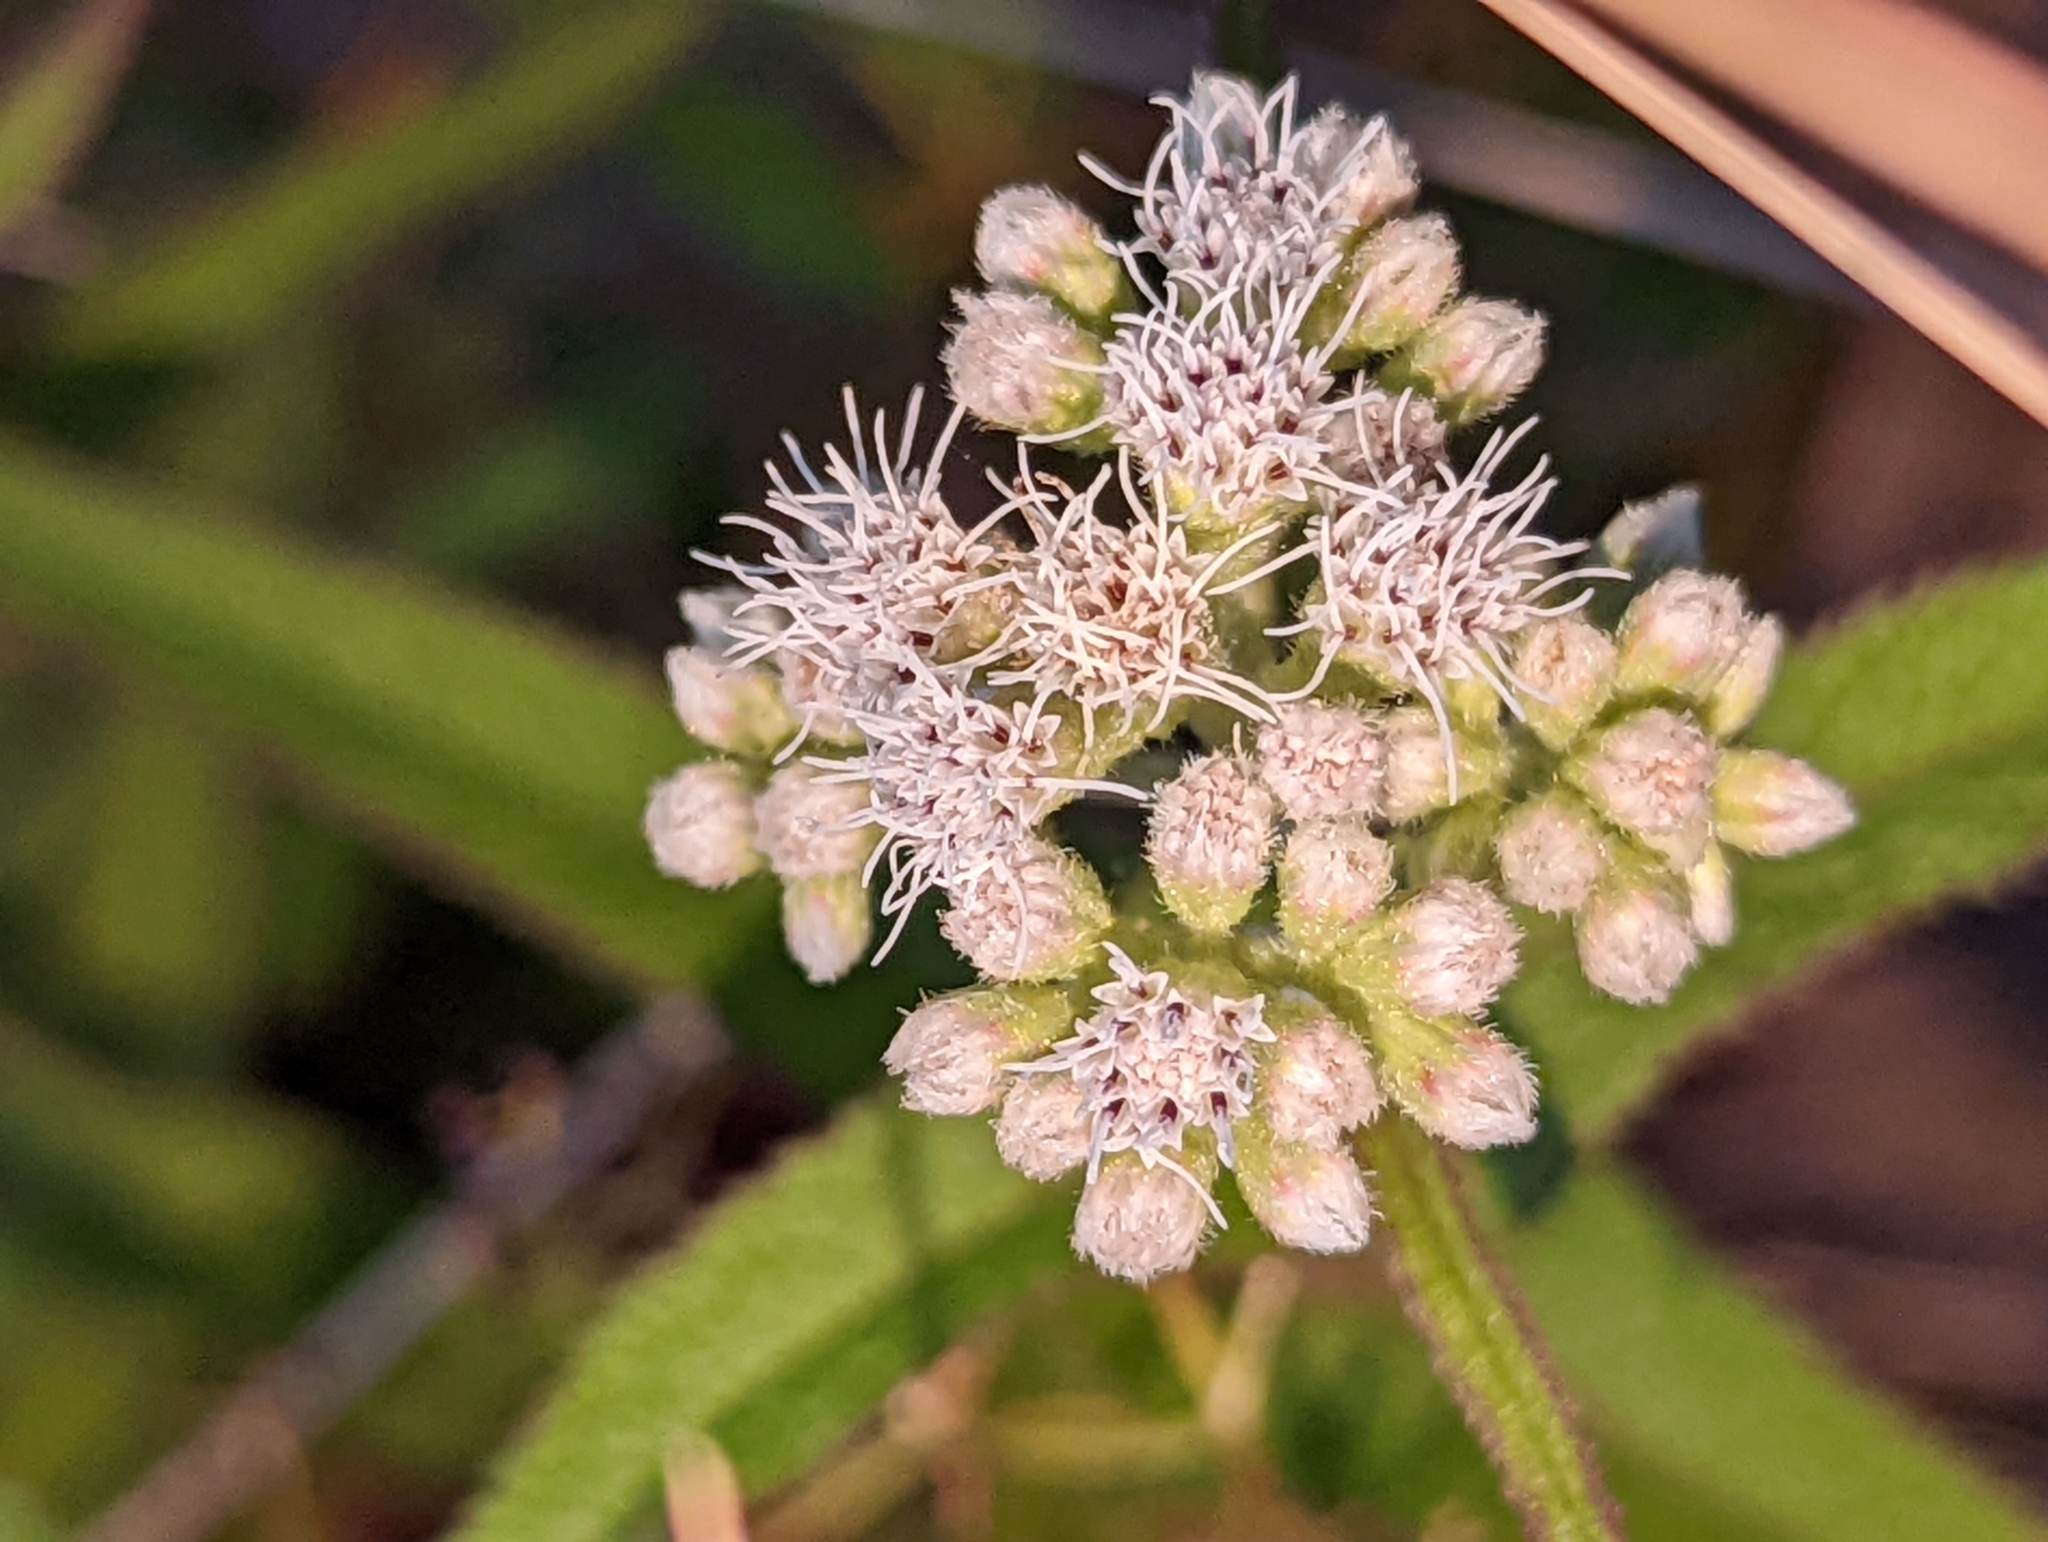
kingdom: Plantae
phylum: Tracheophyta
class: Magnoliopsida
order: Asterales
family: Asteraceae
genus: Eupatorium
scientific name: Eupatorium perfoliatum
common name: Boneset
